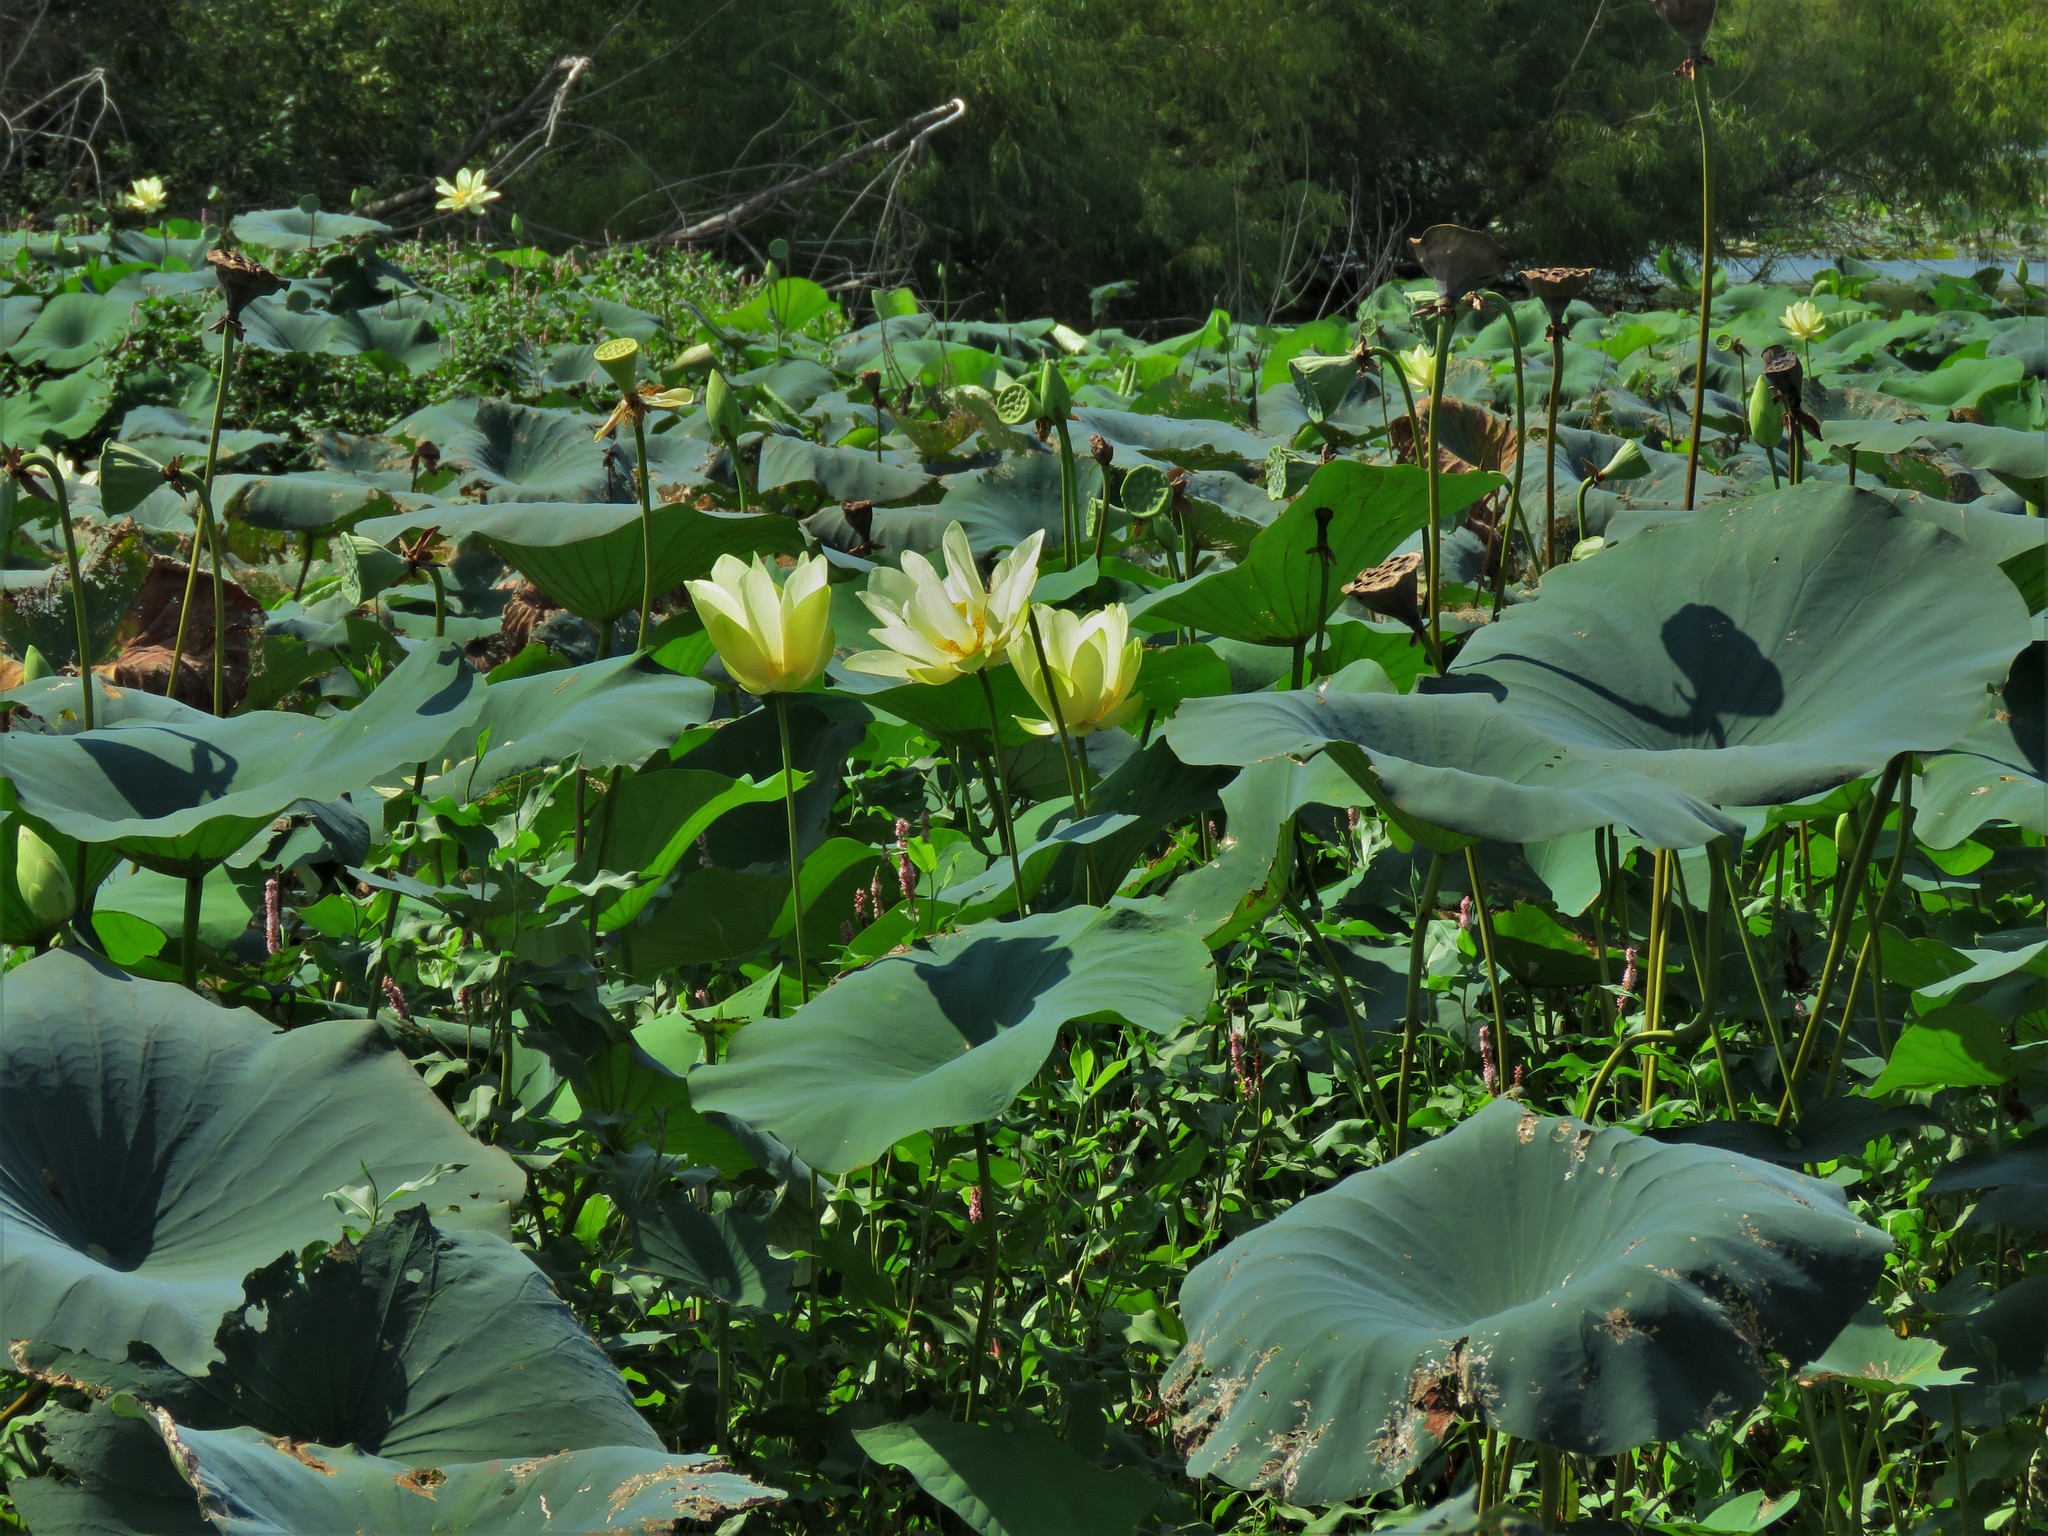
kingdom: Plantae
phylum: Tracheophyta
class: Magnoliopsida
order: Proteales
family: Nelumbonaceae
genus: Nelumbo
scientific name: Nelumbo lutea
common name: American lotus
